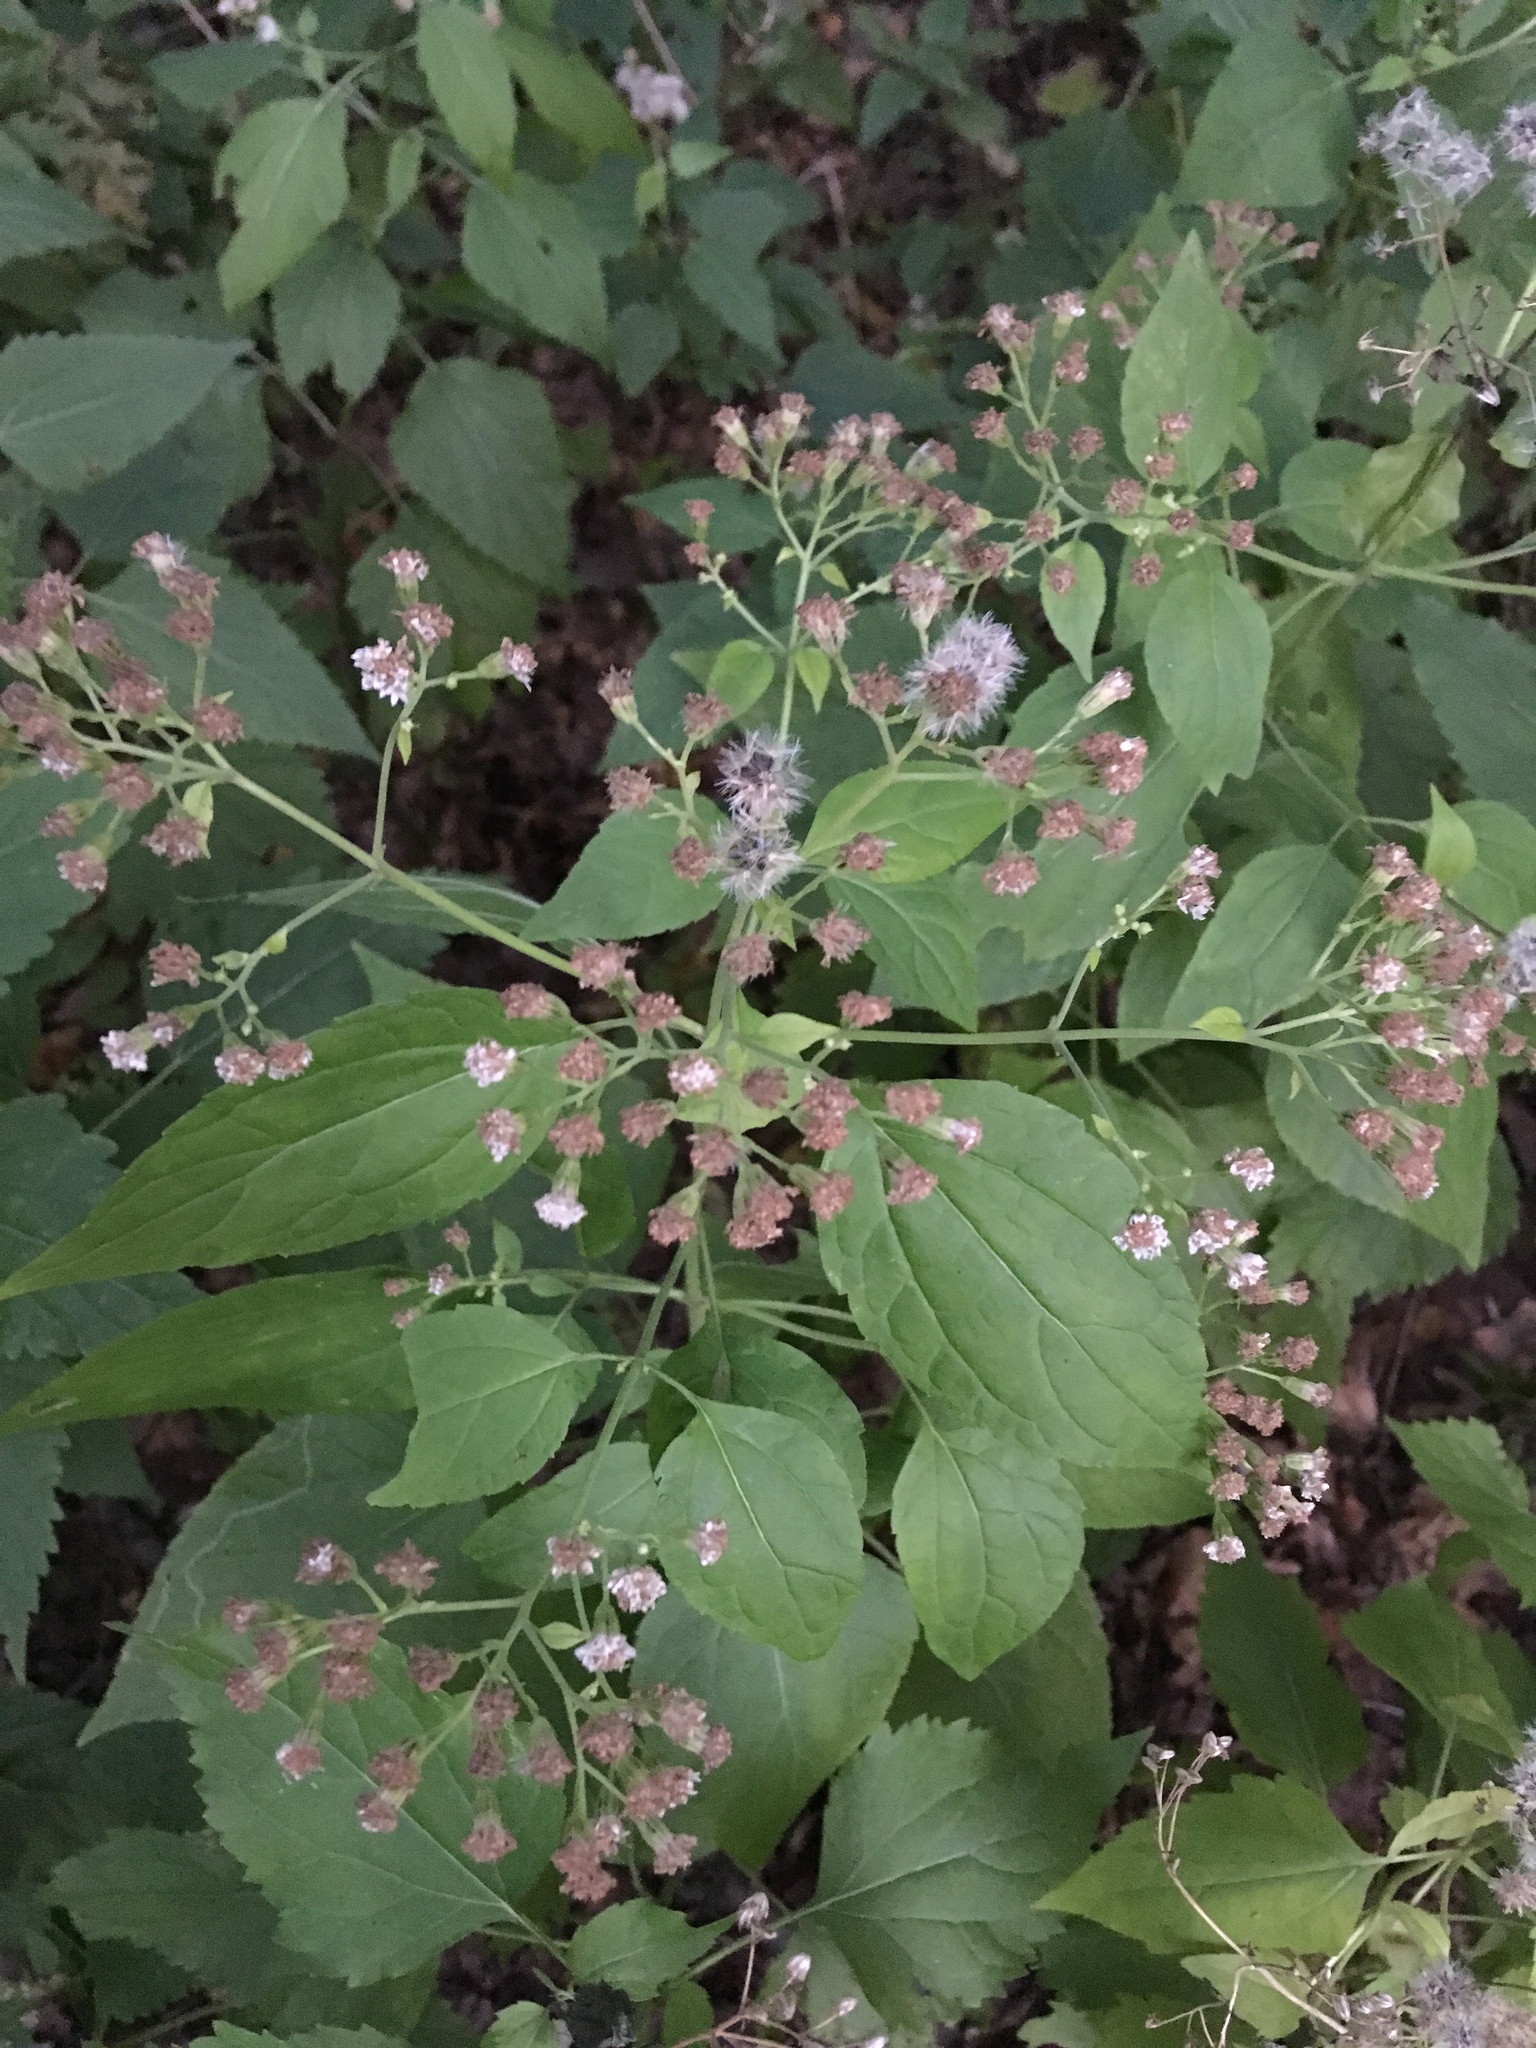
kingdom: Plantae
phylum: Tracheophyta
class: Magnoliopsida
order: Asterales
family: Asteraceae
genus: Ageratina
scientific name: Ageratina altissima
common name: White snakeroot
